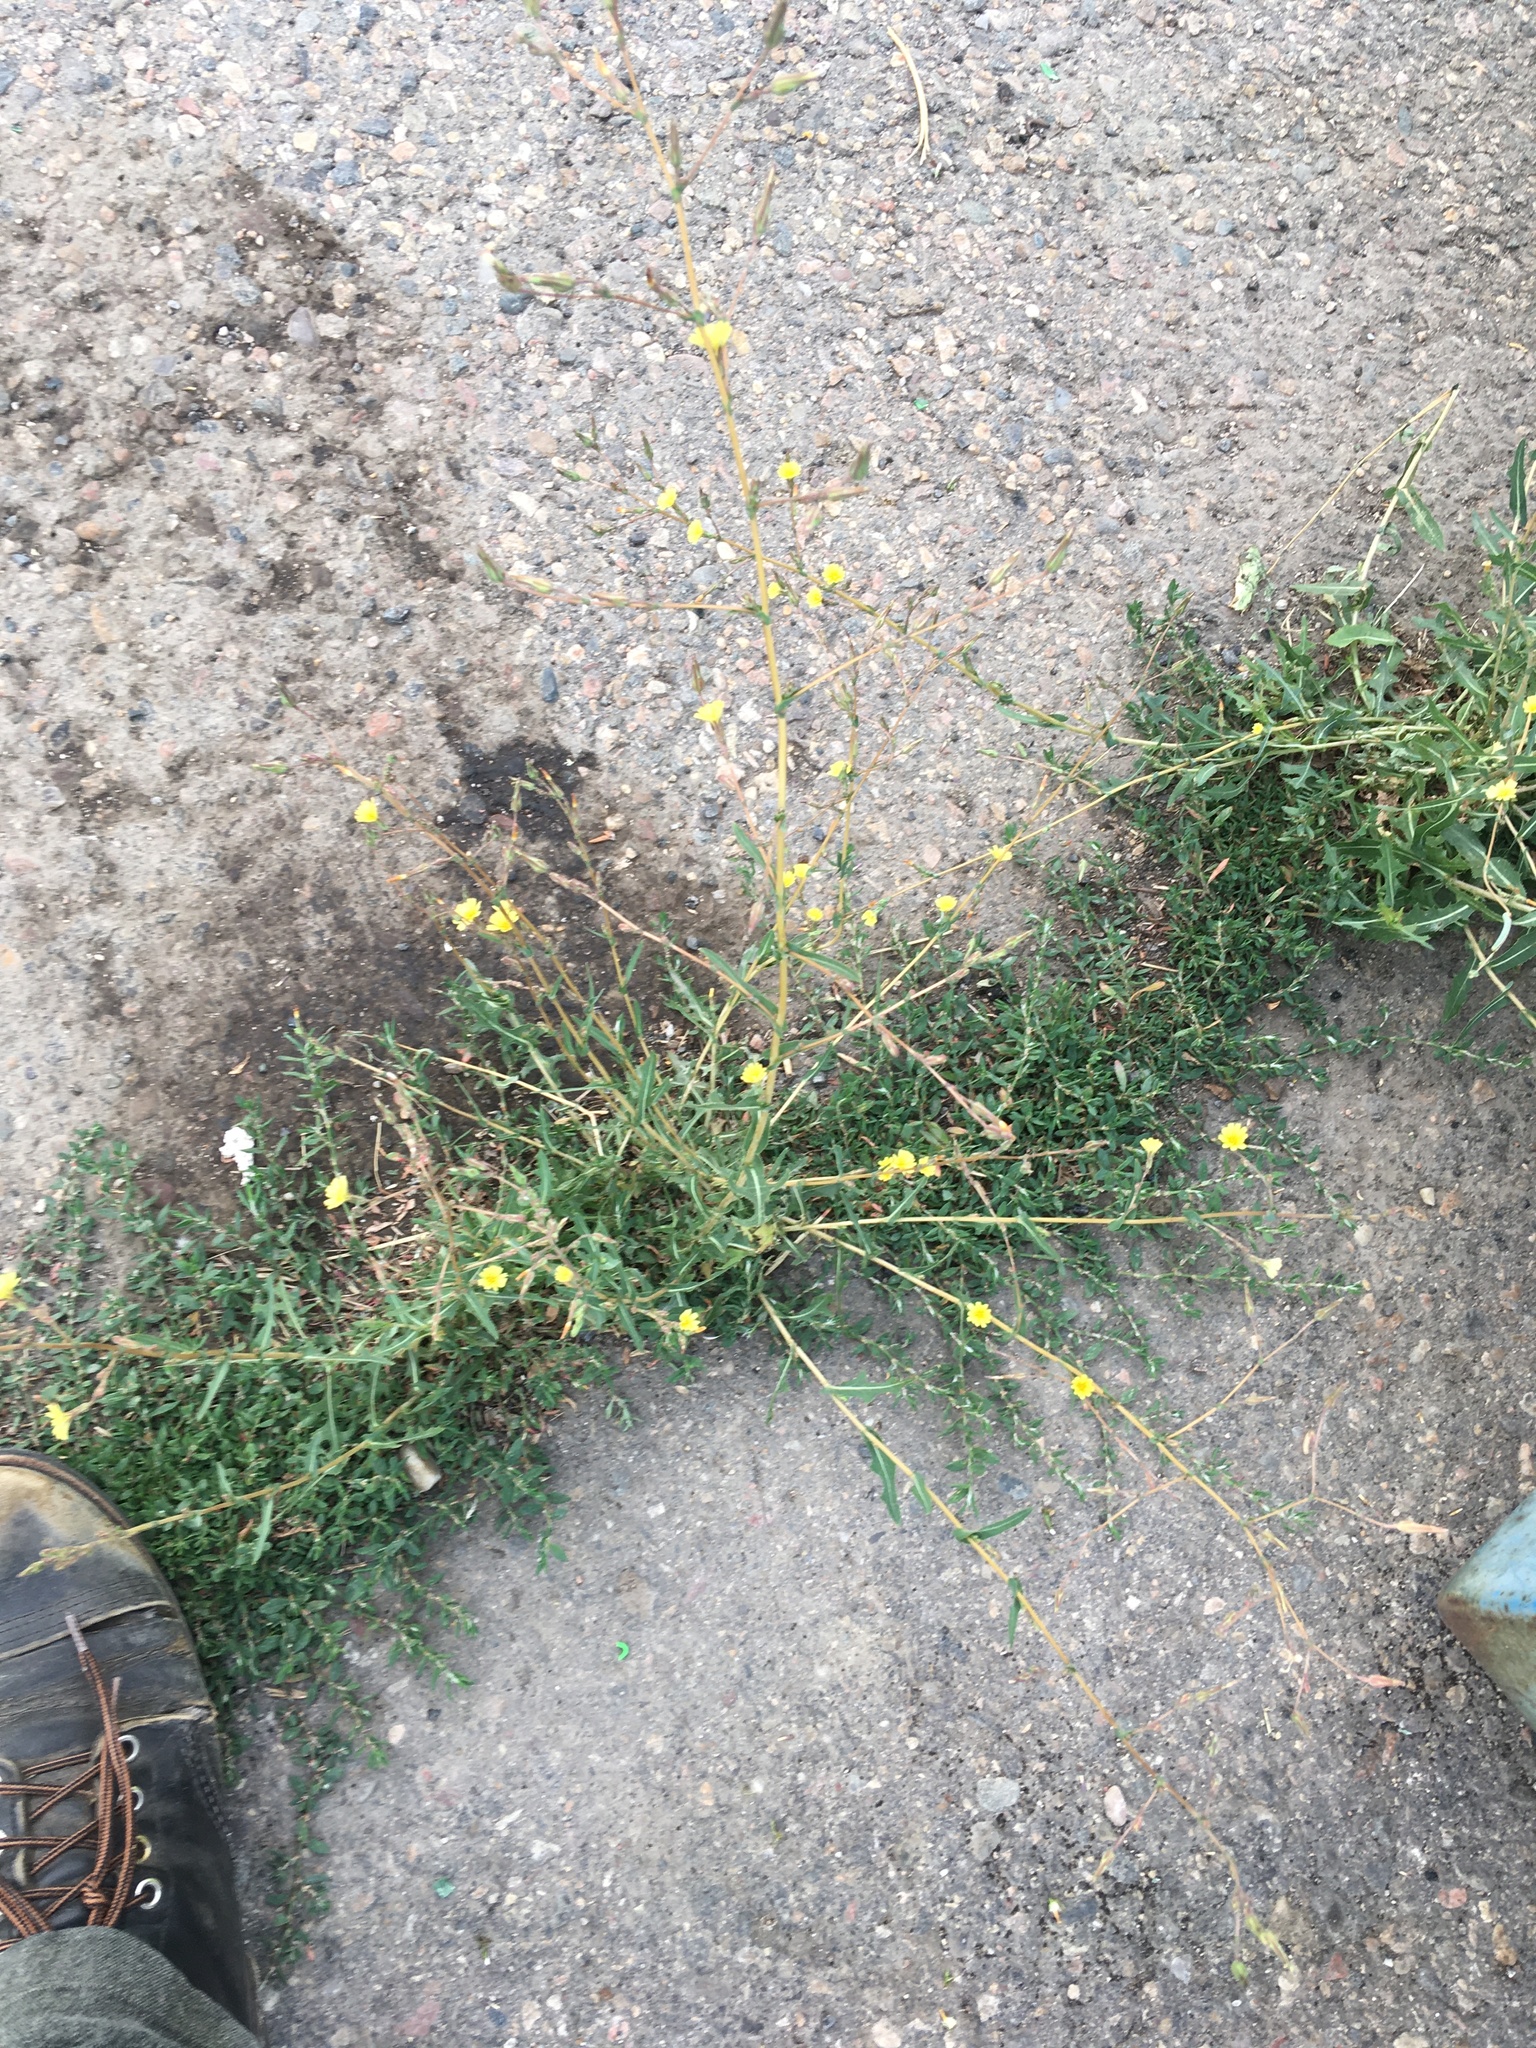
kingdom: Plantae
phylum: Tracheophyta
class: Magnoliopsida
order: Asterales
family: Asteraceae
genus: Lactuca
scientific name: Lactuca serriola
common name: Prickly lettuce
